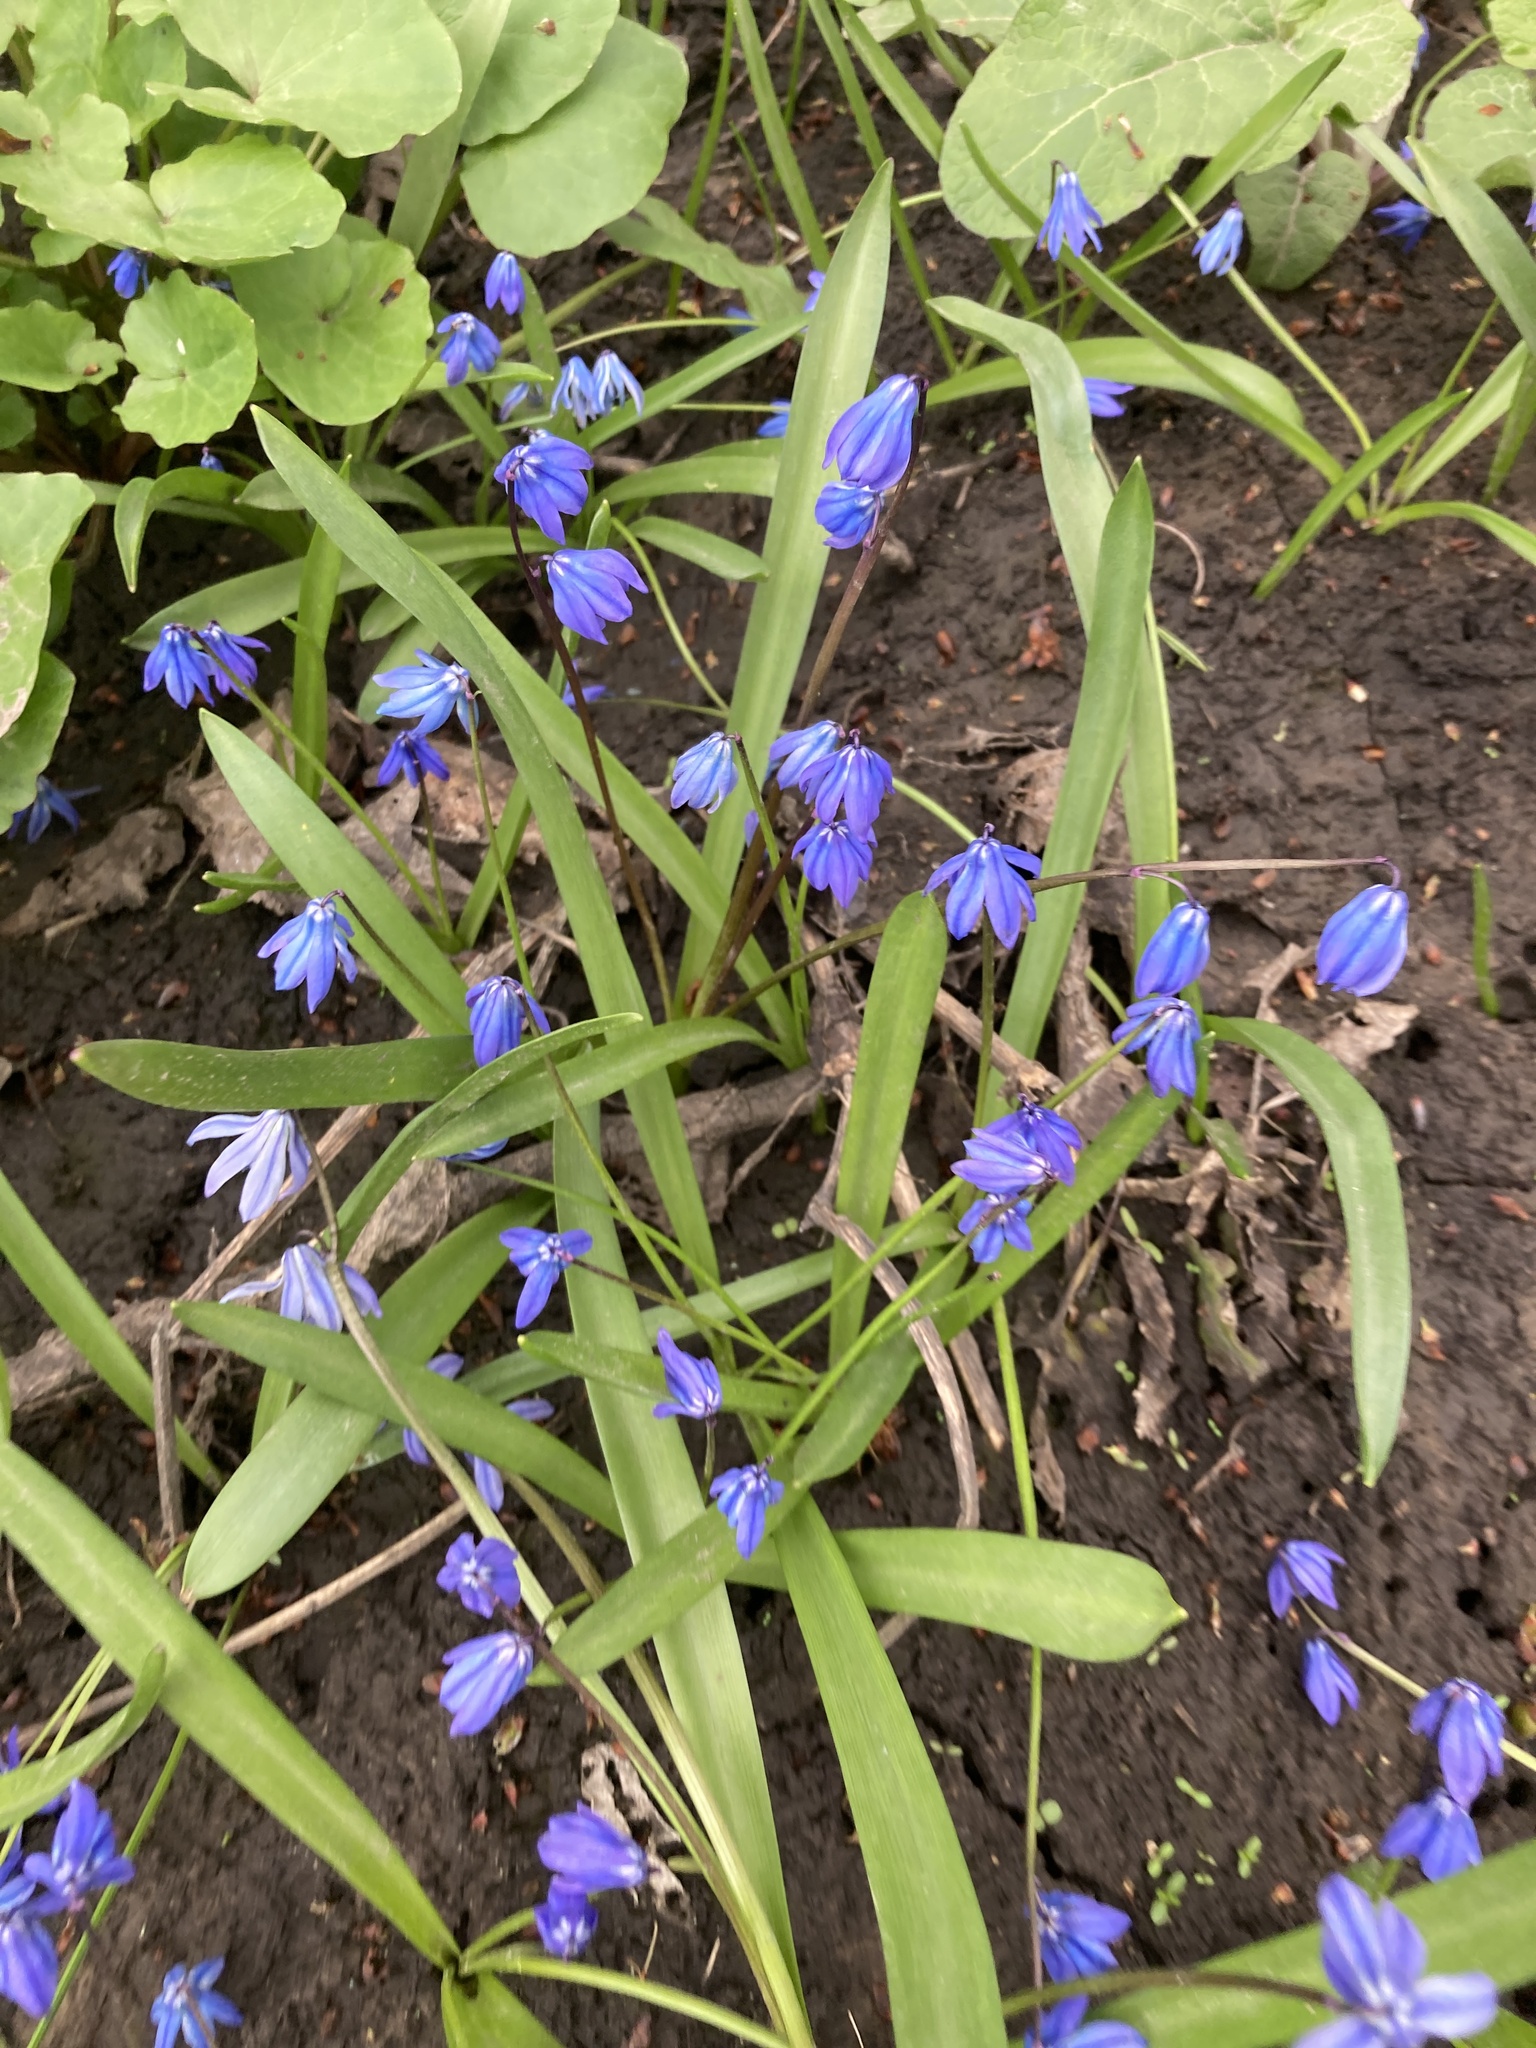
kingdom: Plantae
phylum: Tracheophyta
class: Liliopsida
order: Asparagales
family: Asparagaceae
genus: Scilla
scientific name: Scilla siberica
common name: Siberian squill
